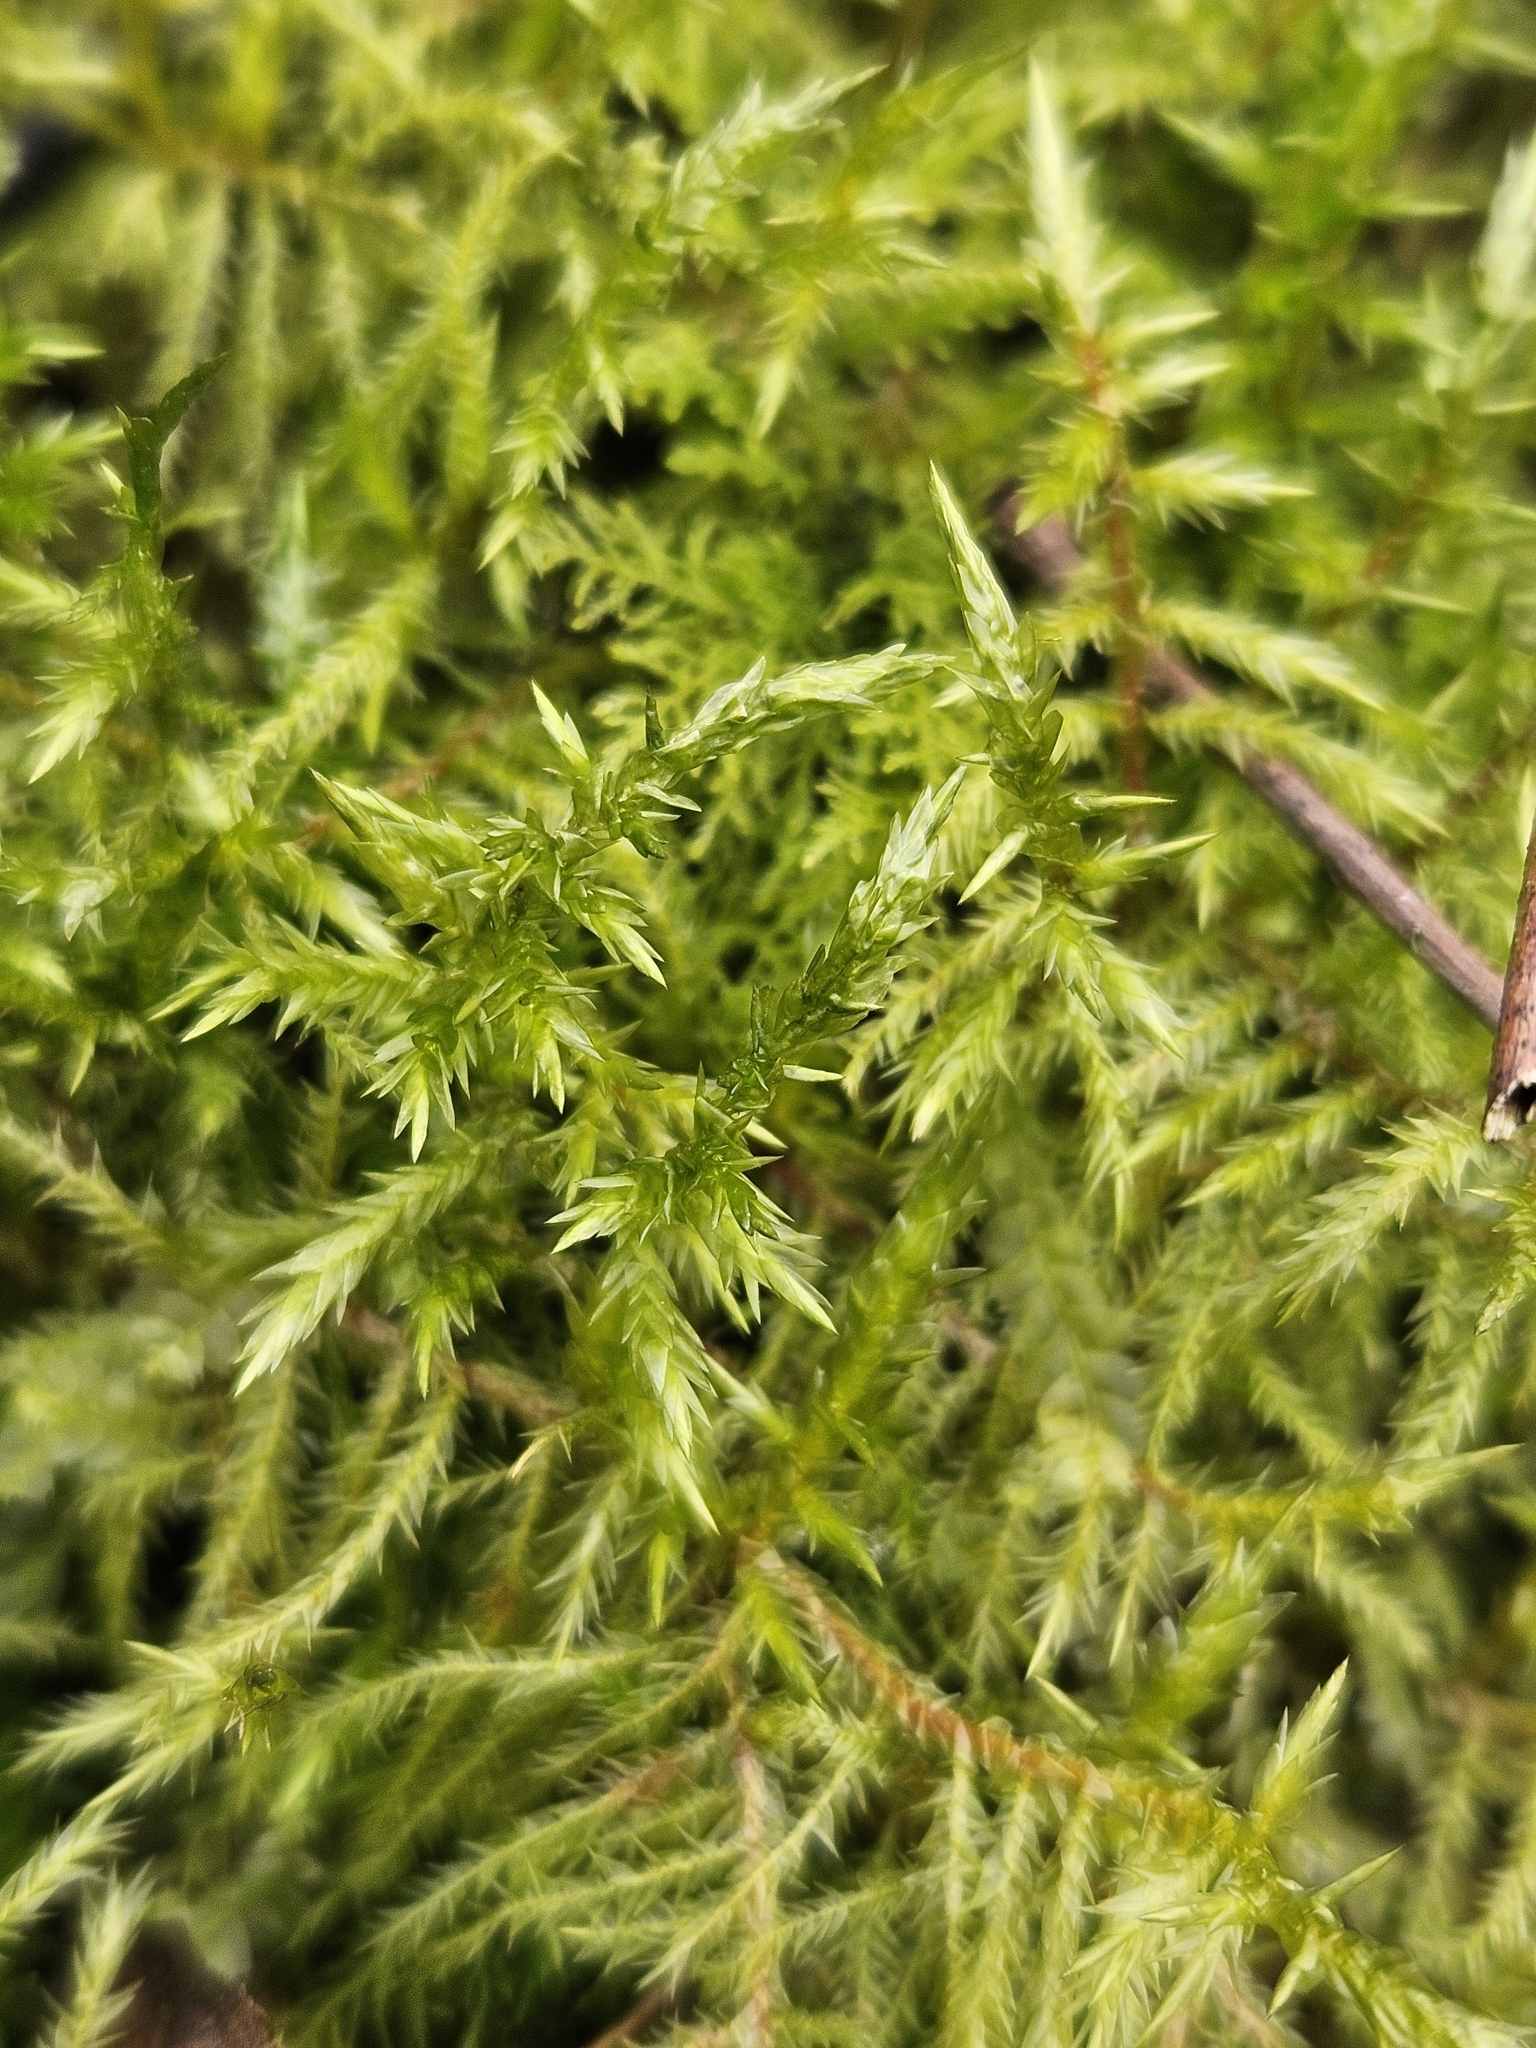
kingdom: Plantae
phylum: Bryophyta
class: Bryopsida
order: Hypnales
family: Pylaisiaceae
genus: Calliergonella
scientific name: Calliergonella cuspidata
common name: Common large wetland moss
